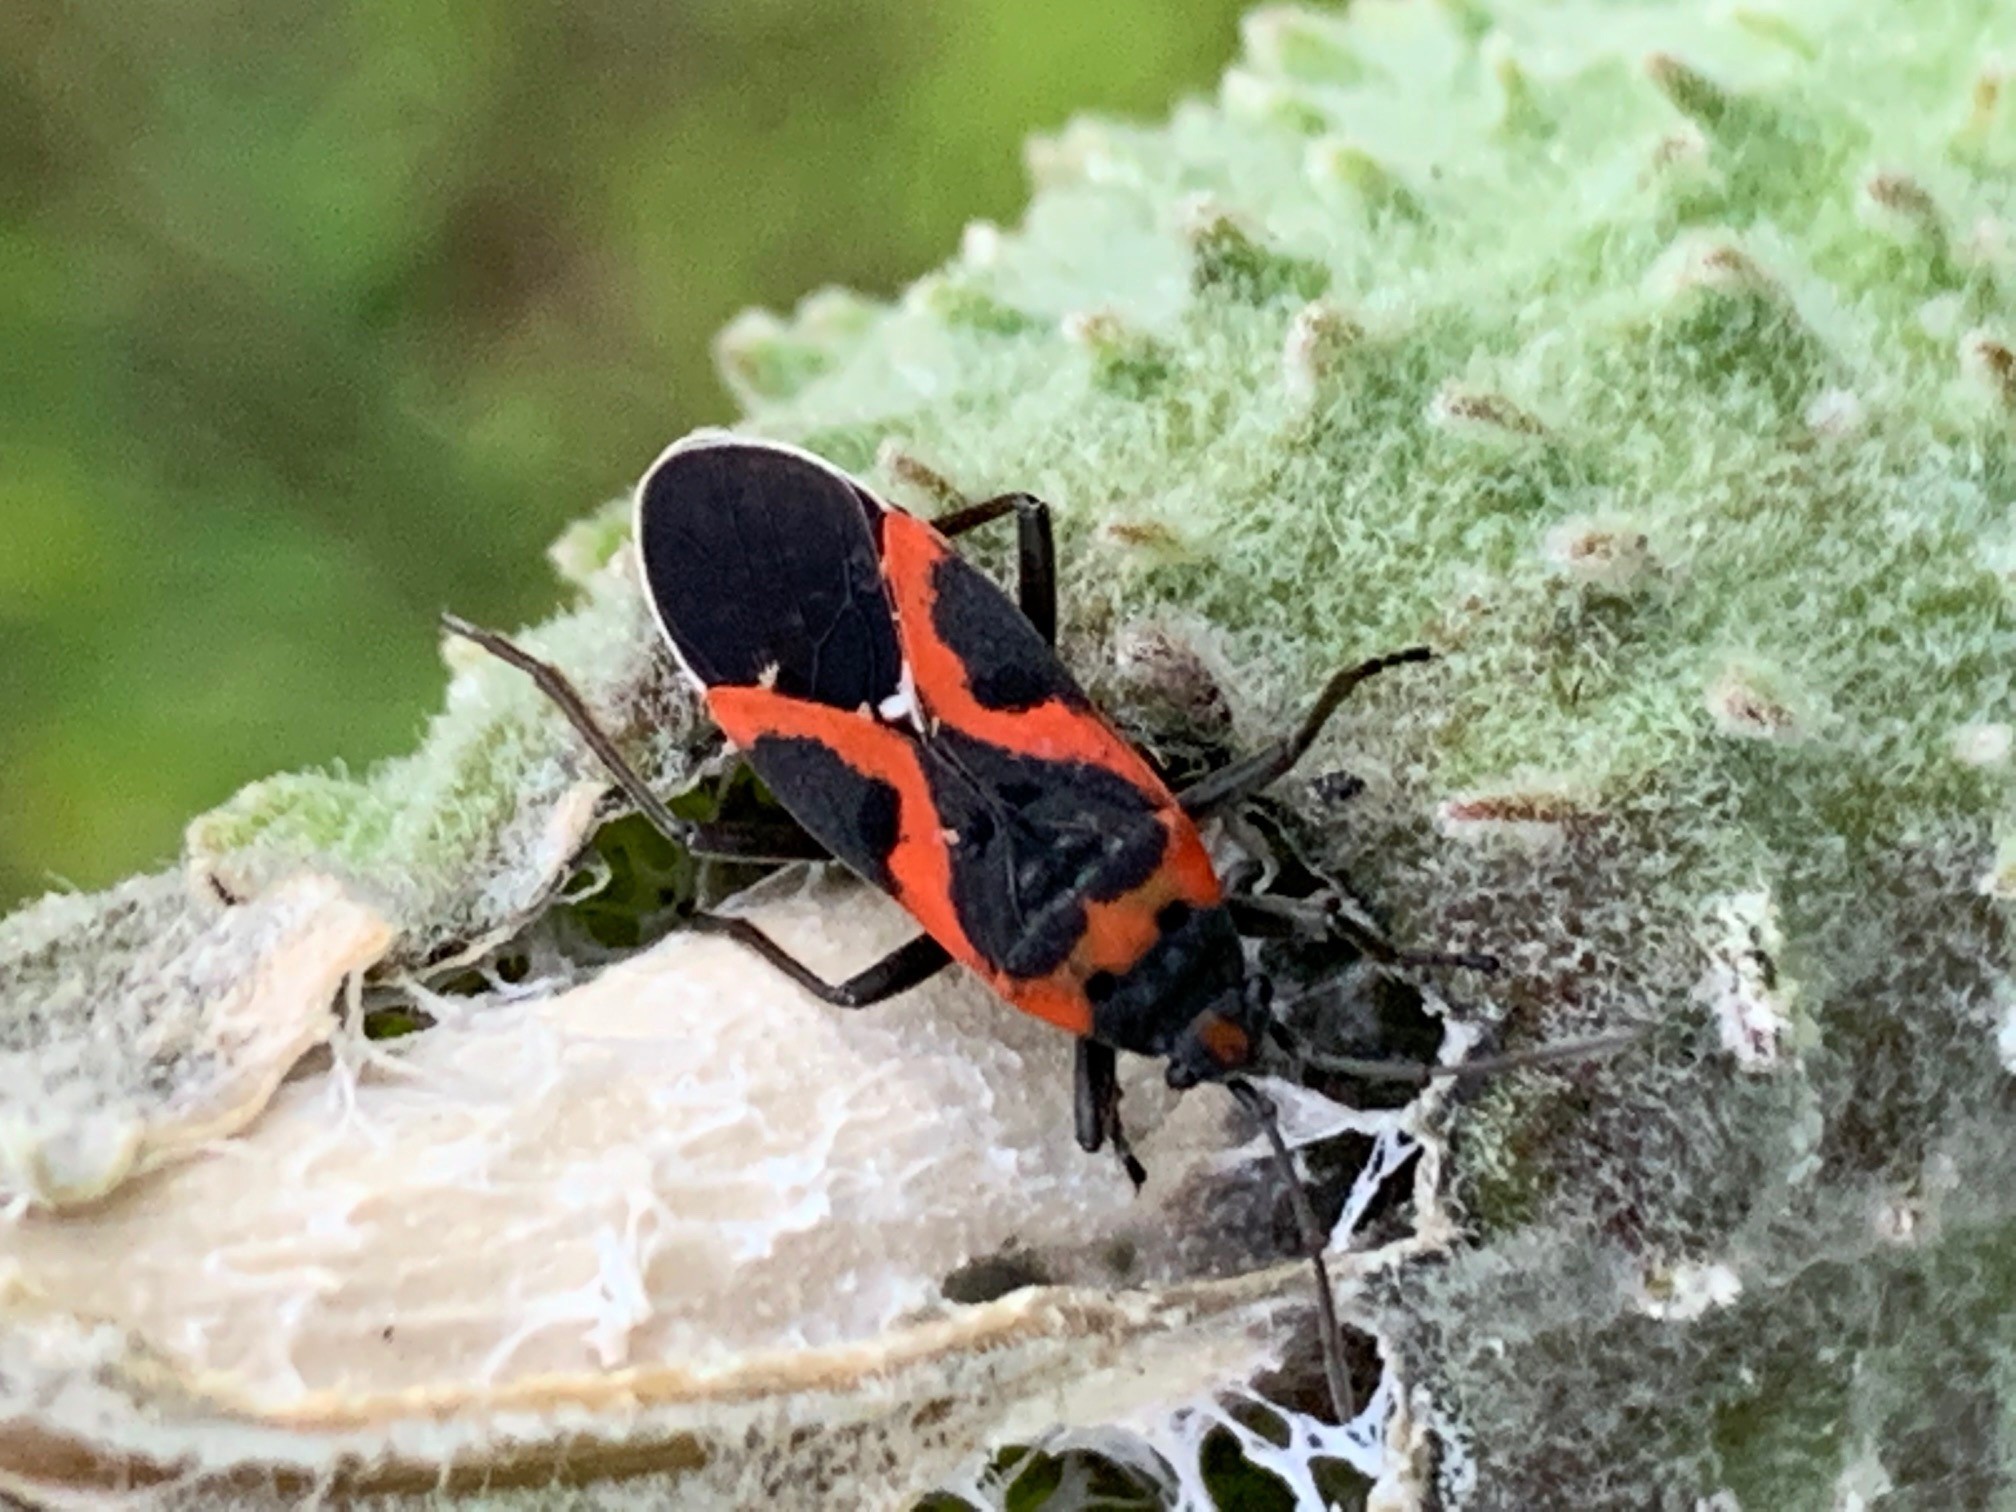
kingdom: Animalia
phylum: Arthropoda
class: Insecta
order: Hemiptera
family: Lygaeidae
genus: Lygaeus
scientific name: Lygaeus kalmii
